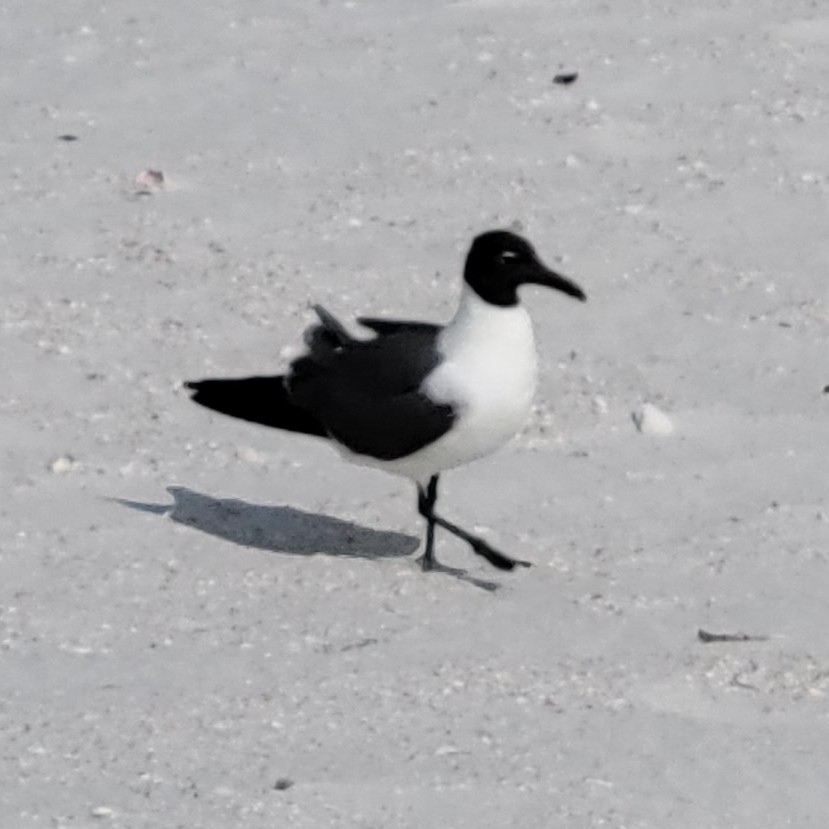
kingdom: Animalia
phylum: Chordata
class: Aves
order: Charadriiformes
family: Laridae
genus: Leucophaeus
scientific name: Leucophaeus atricilla
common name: Laughing gull
